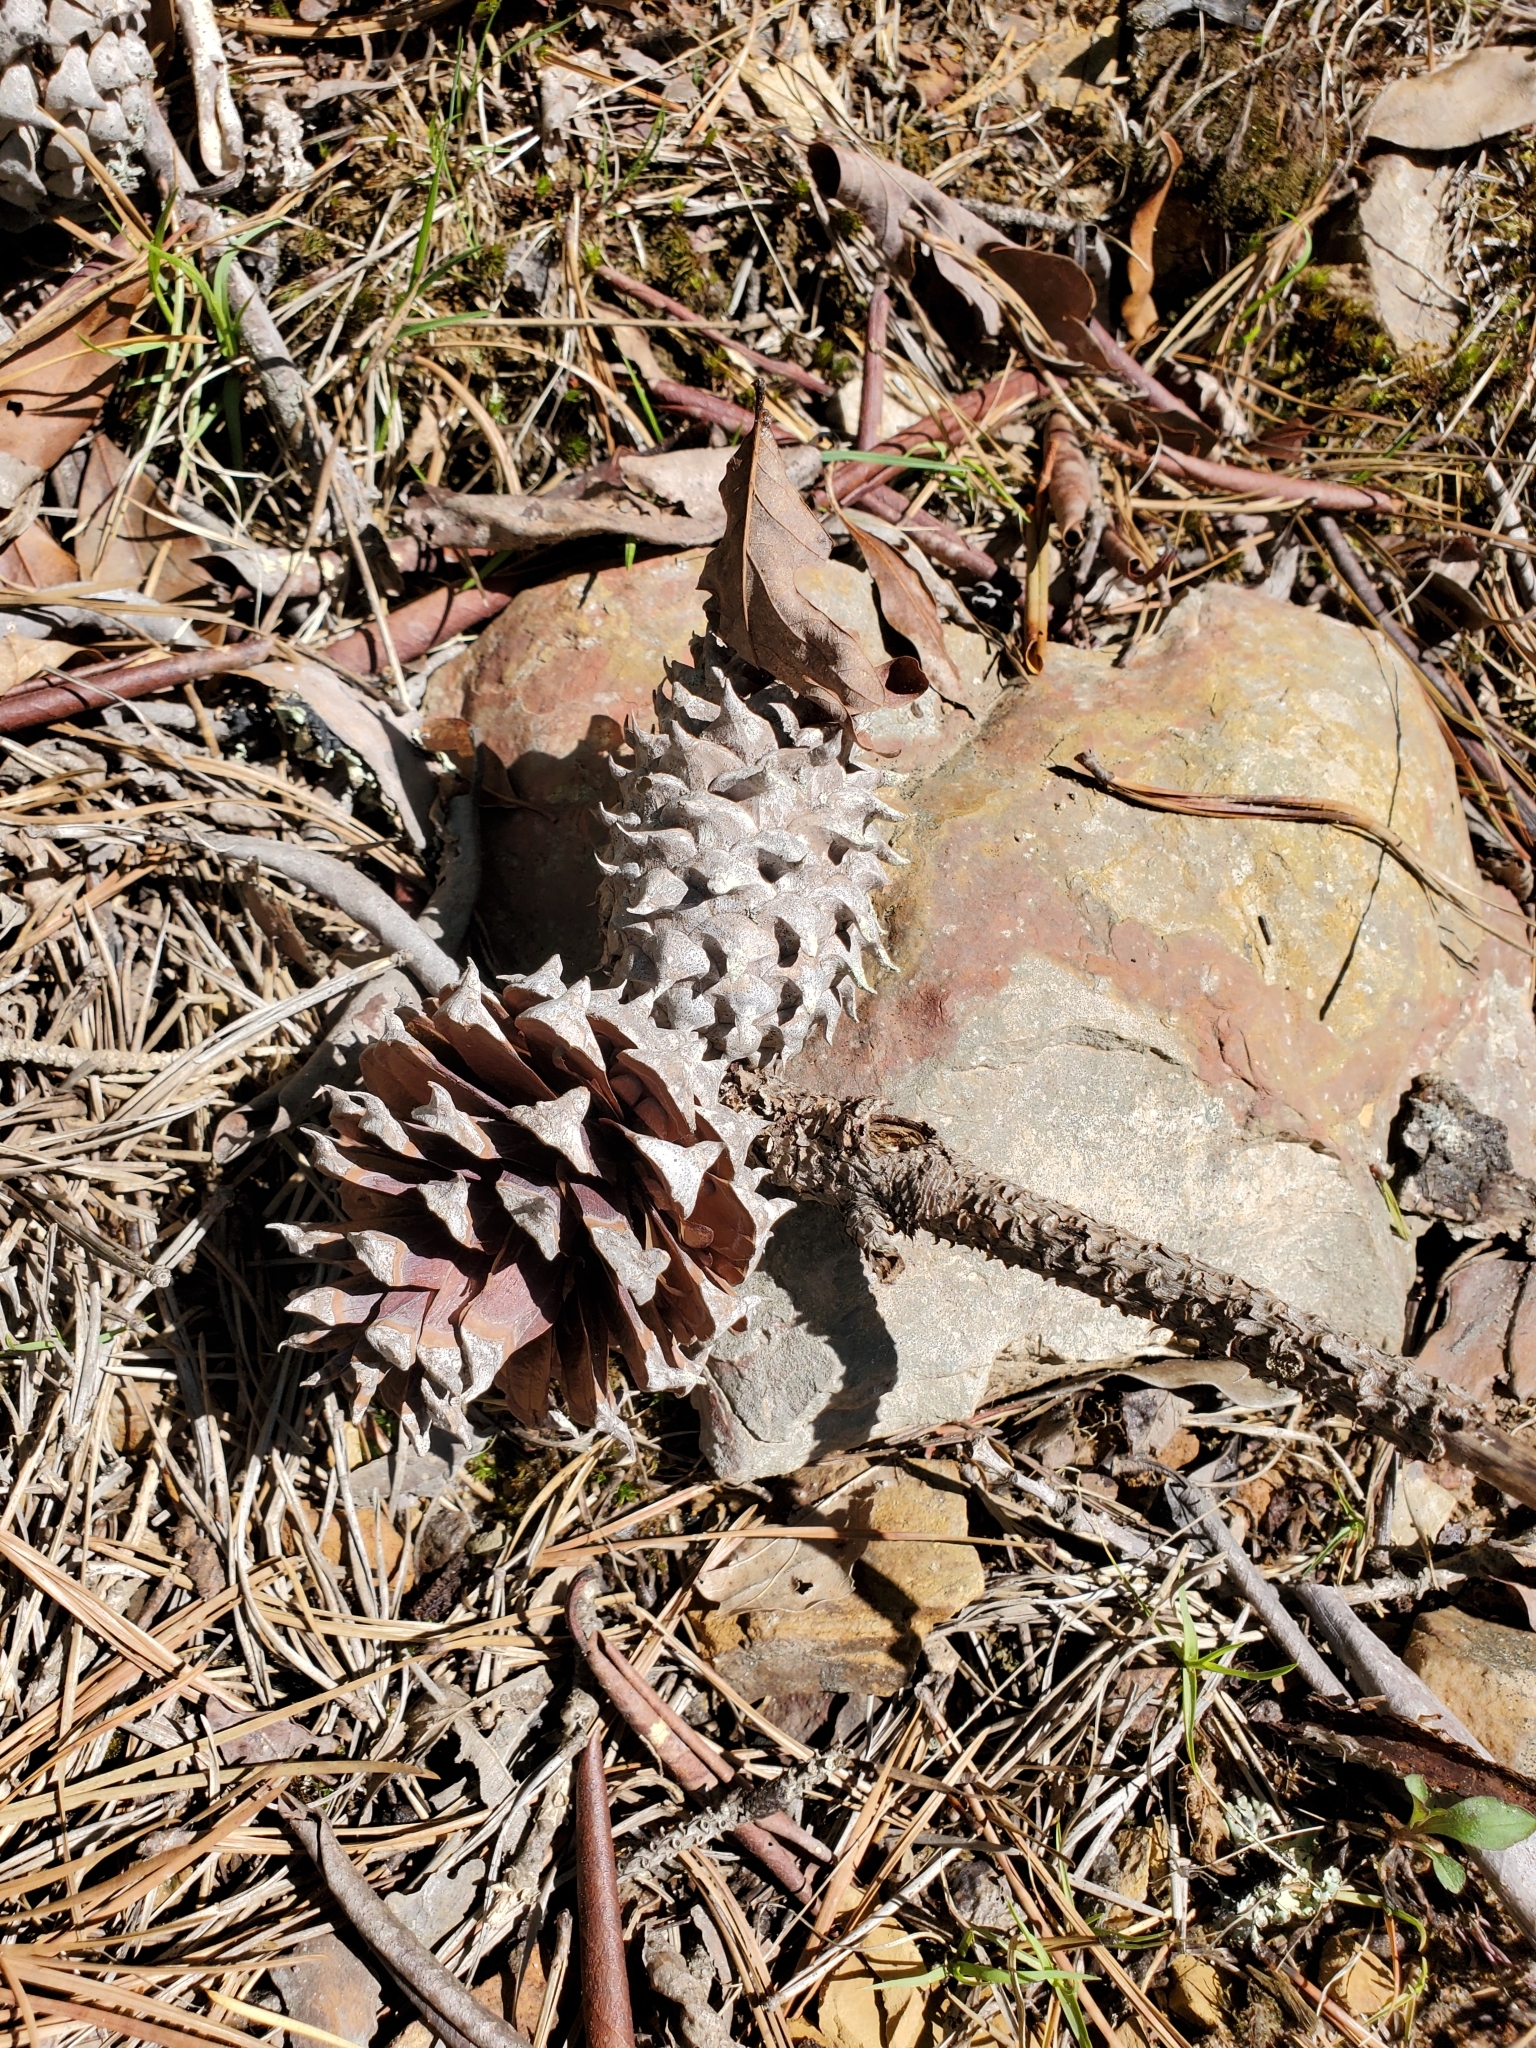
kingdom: Plantae
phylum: Tracheophyta
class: Pinopsida
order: Pinales
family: Pinaceae
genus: Pinus
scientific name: Pinus pungens
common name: Hickory pine
